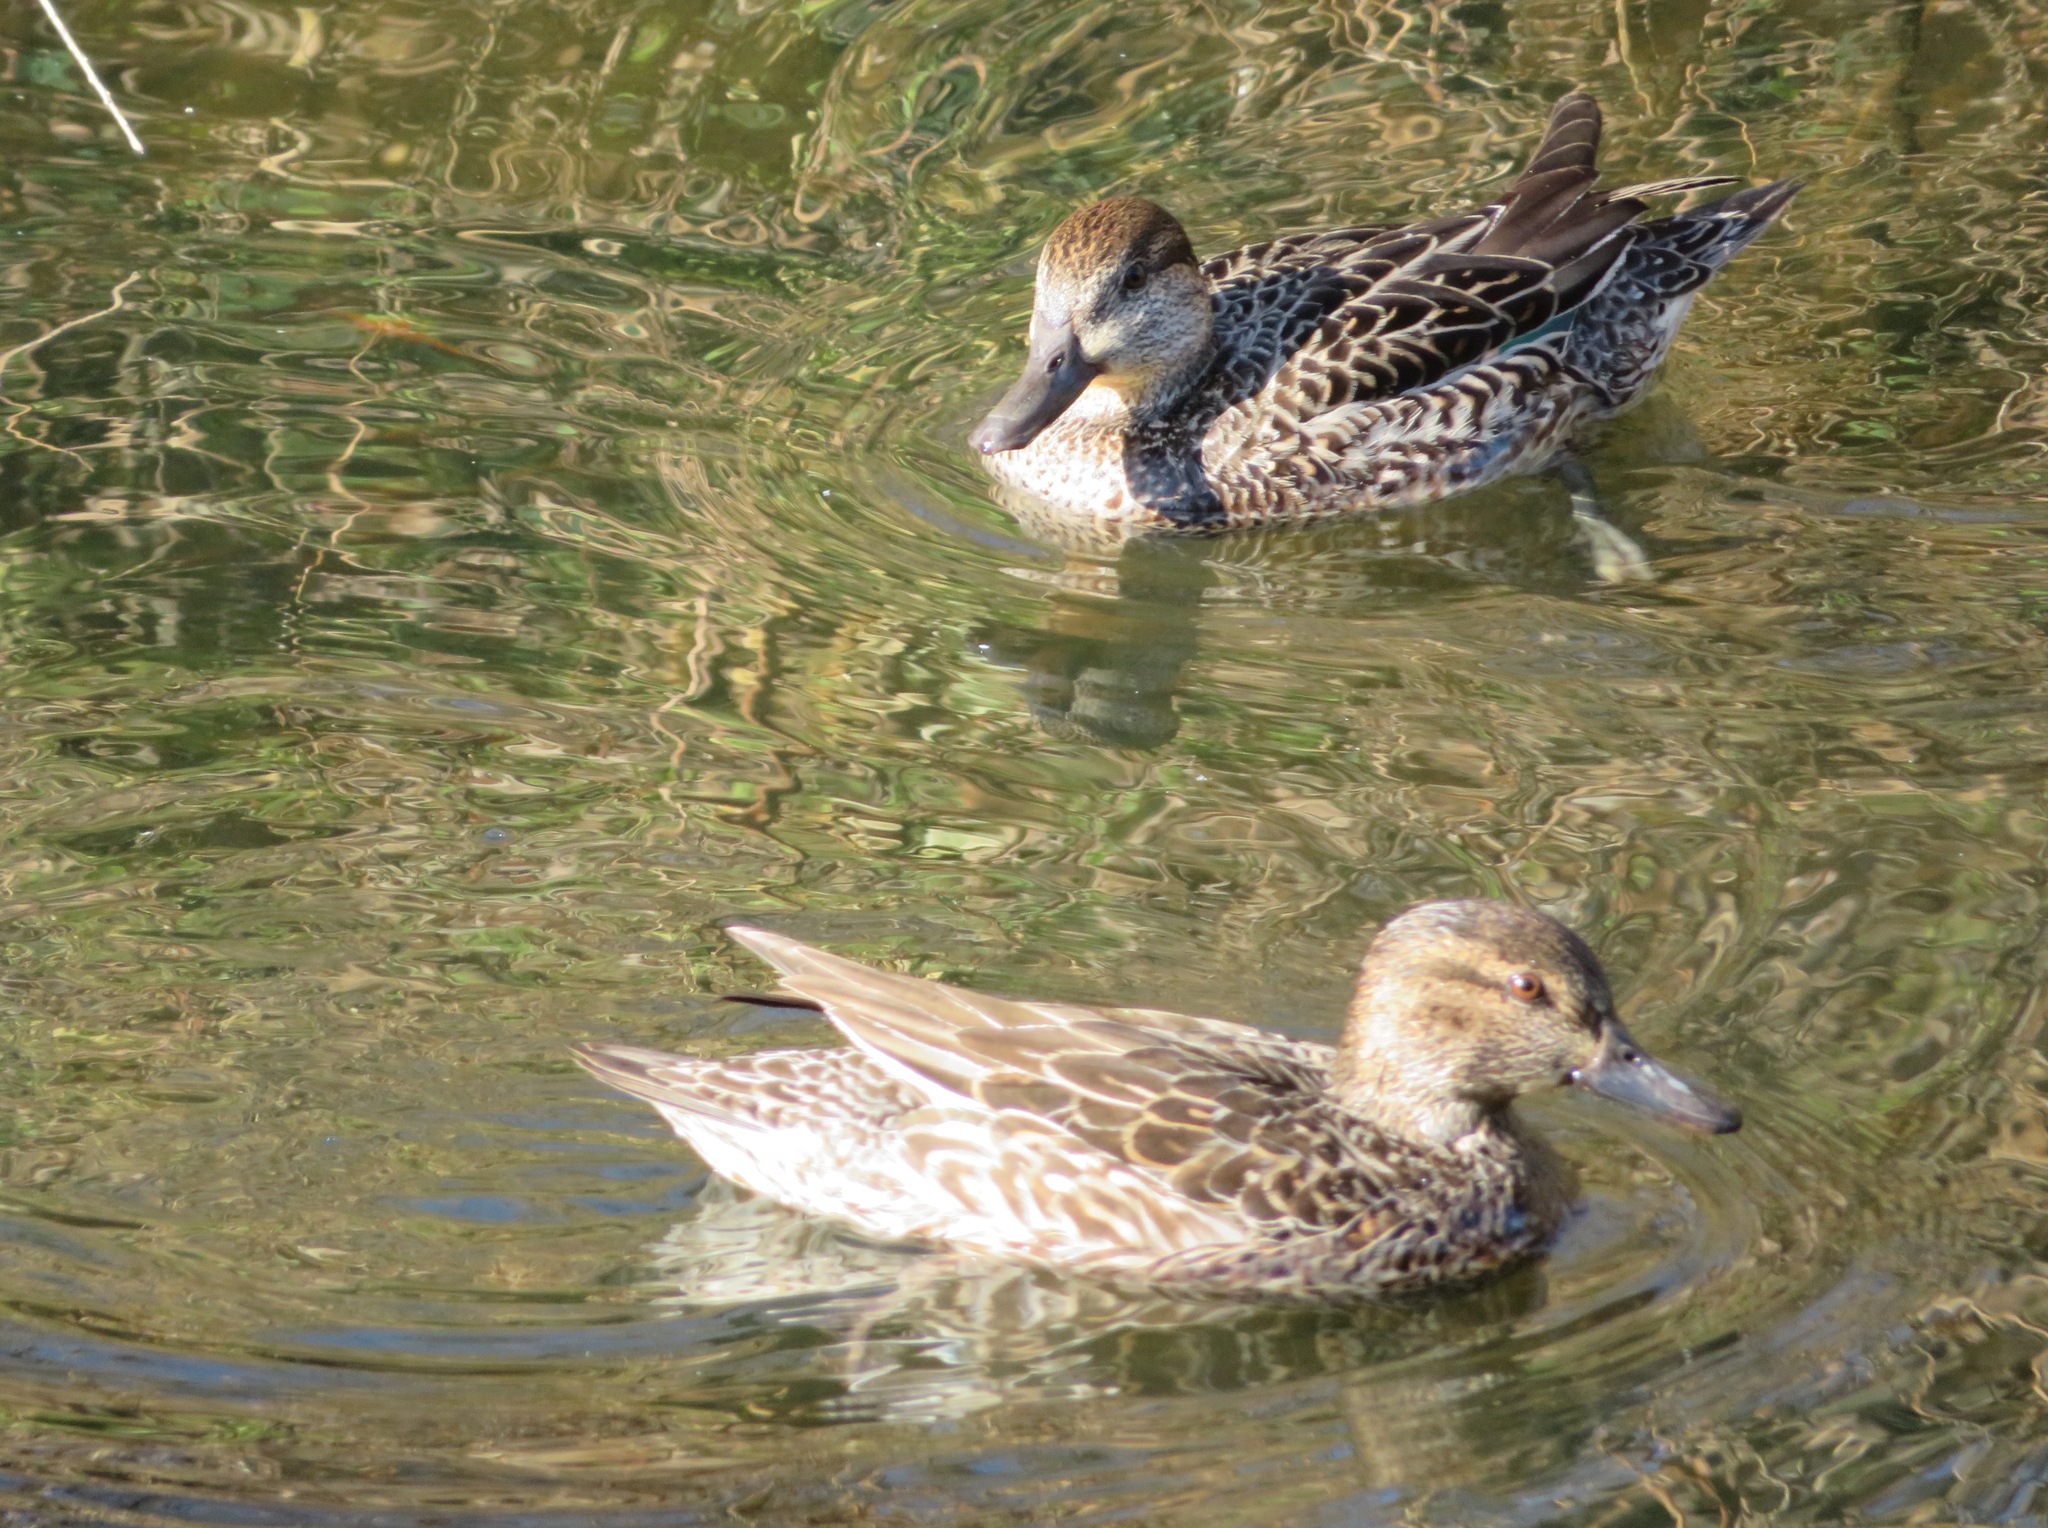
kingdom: Animalia
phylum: Chordata
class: Aves
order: Anseriformes
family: Anatidae
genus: Anas
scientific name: Anas crecca
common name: Eurasian teal
